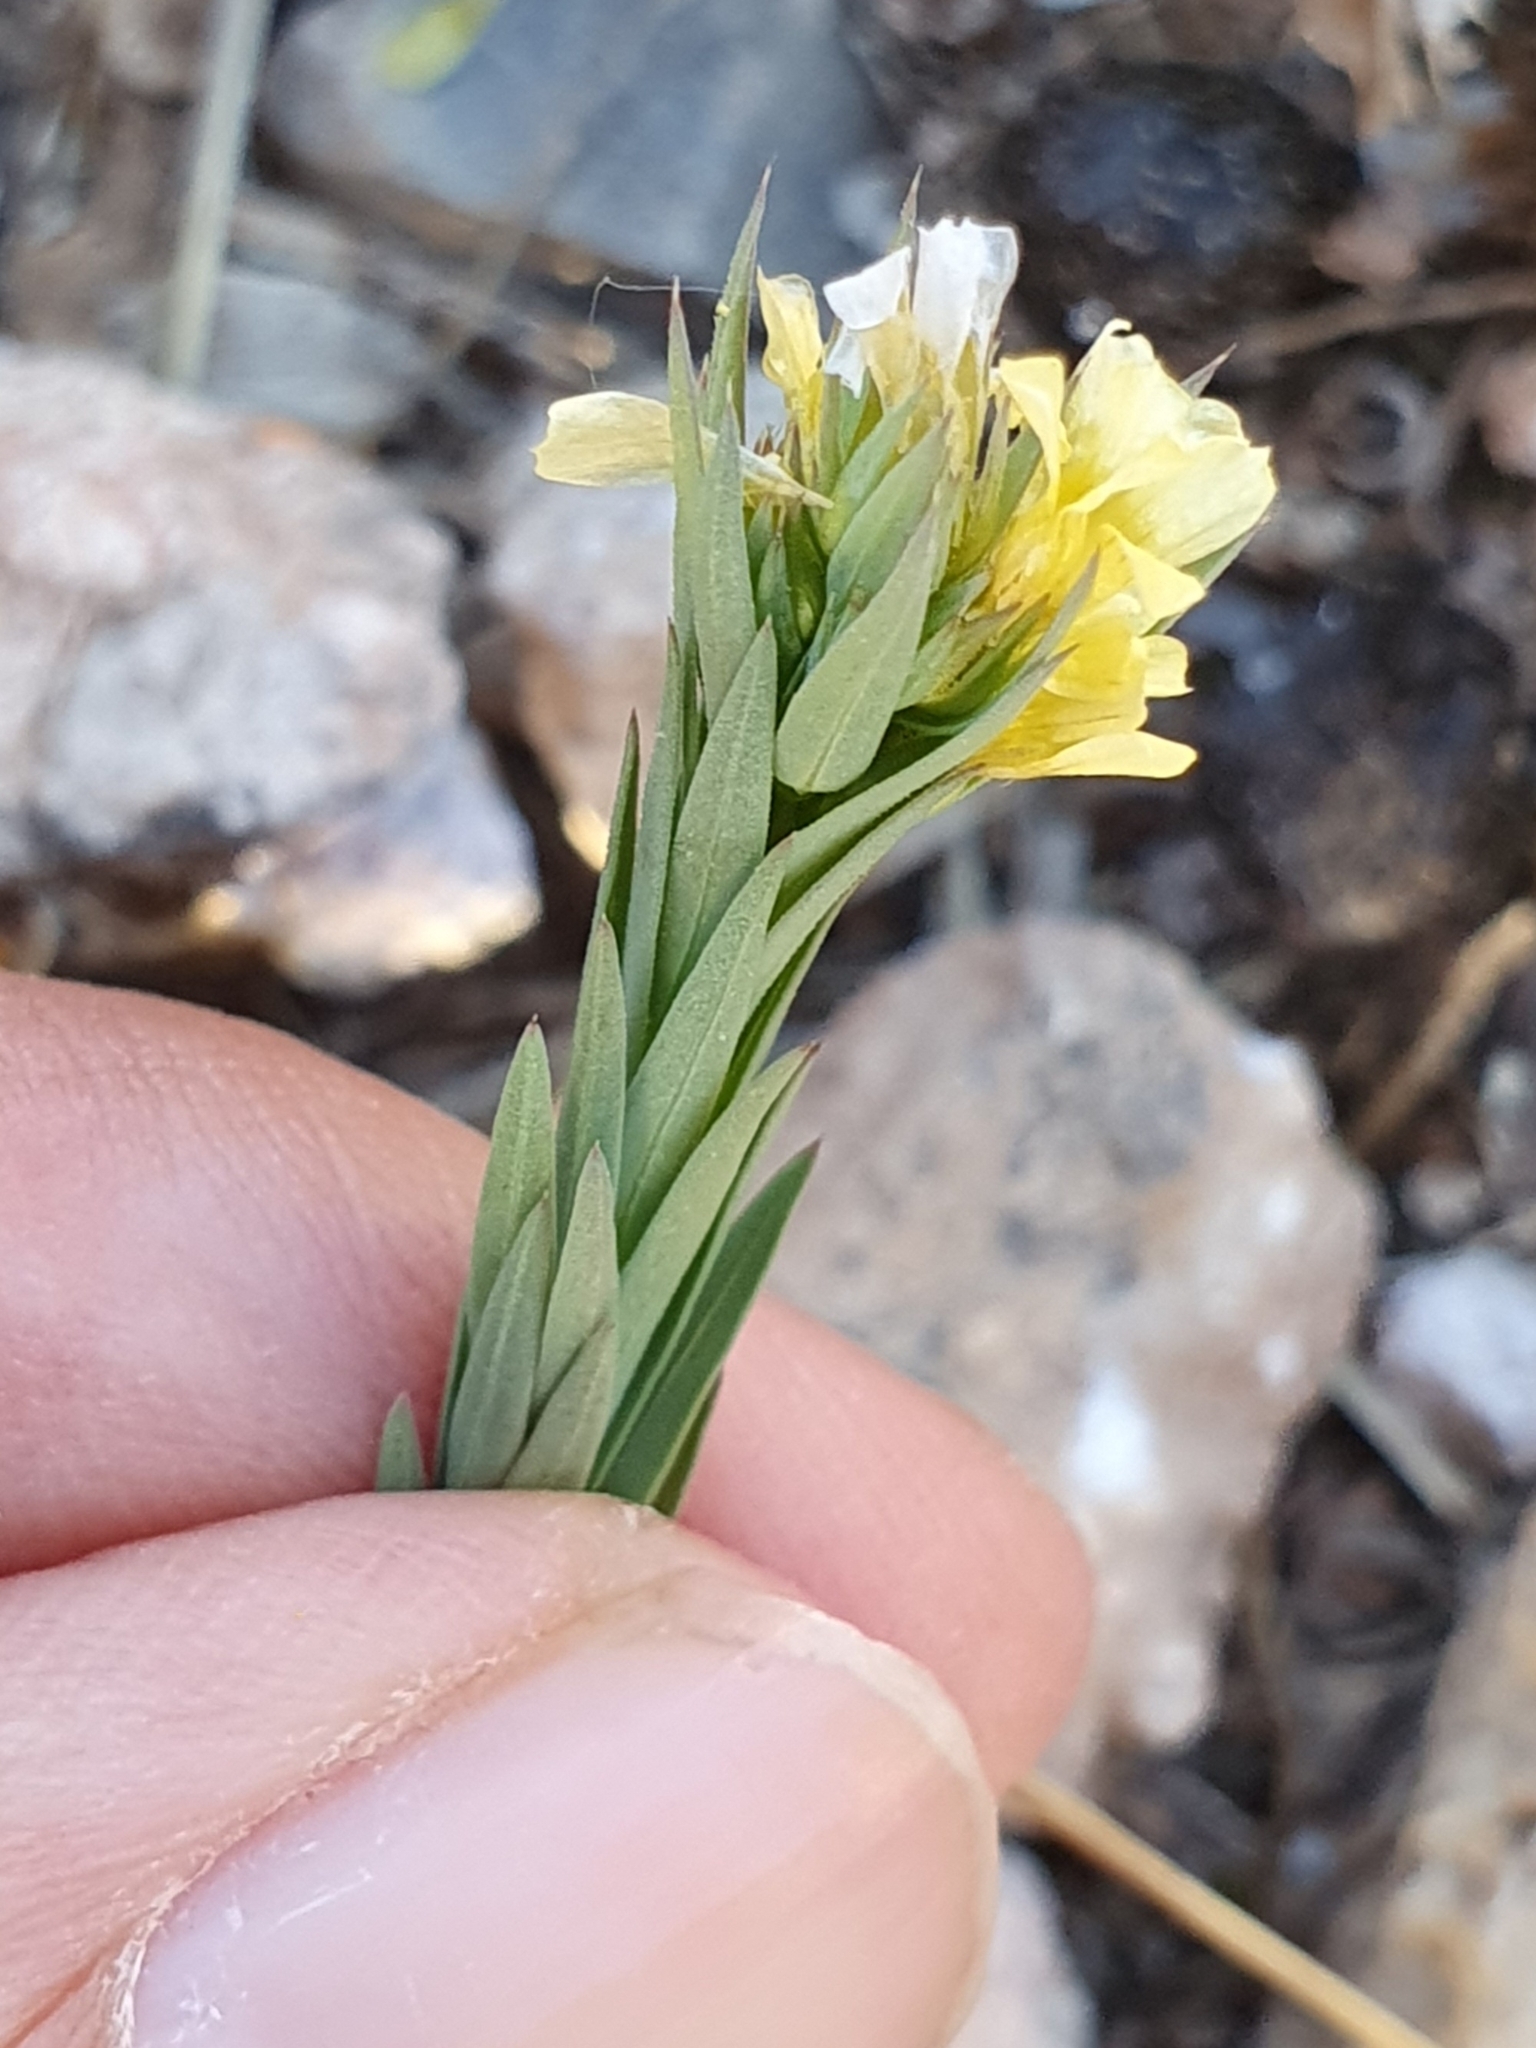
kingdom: Plantae
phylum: Tracheophyta
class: Magnoliopsida
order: Malpighiales
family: Linaceae
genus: Linum
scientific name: Linum strictum
